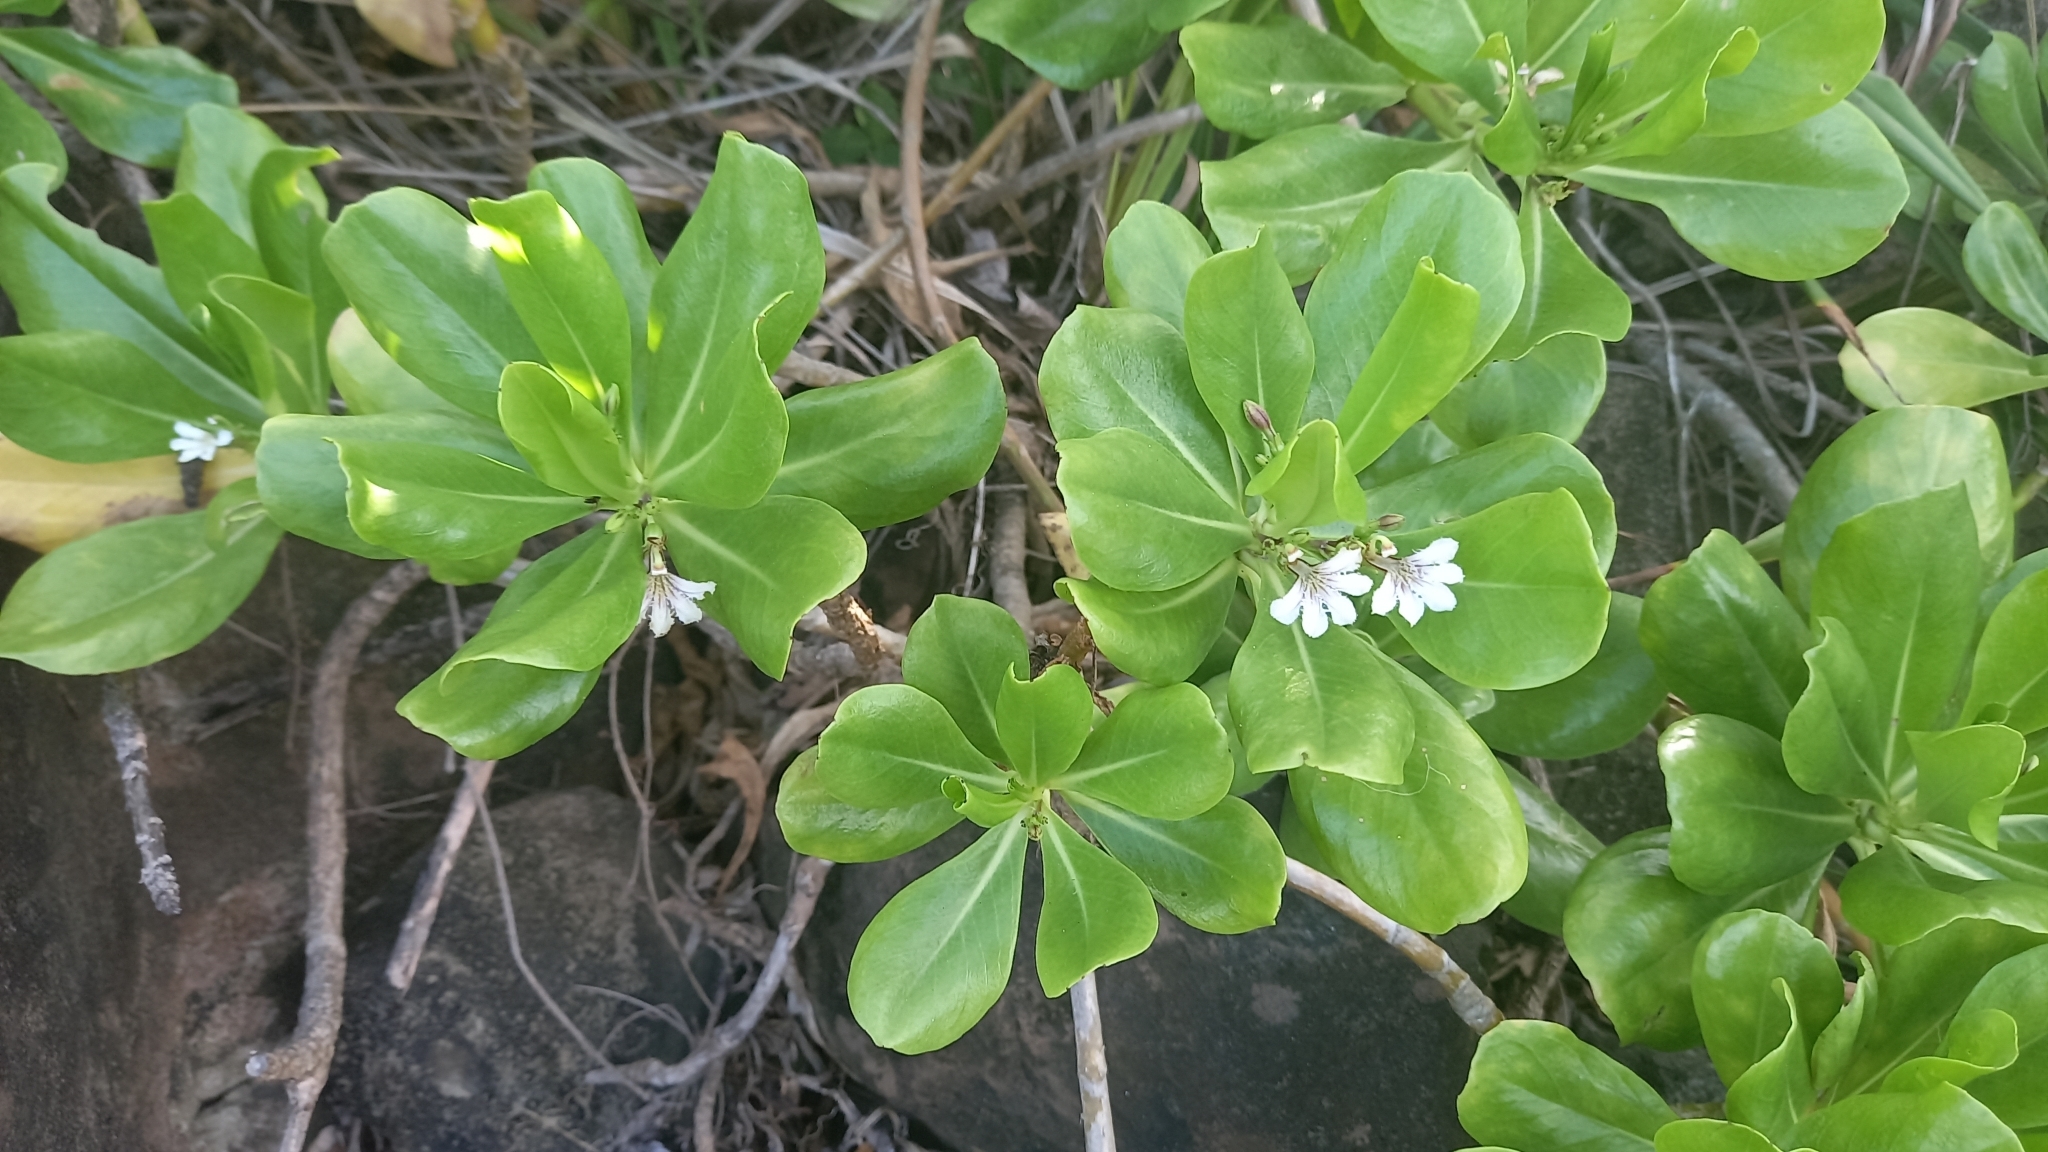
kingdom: Plantae
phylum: Tracheophyta
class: Magnoliopsida
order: Asterales
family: Goodeniaceae
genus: Scaevola
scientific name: Scaevola taccada
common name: Sea lettucetree
